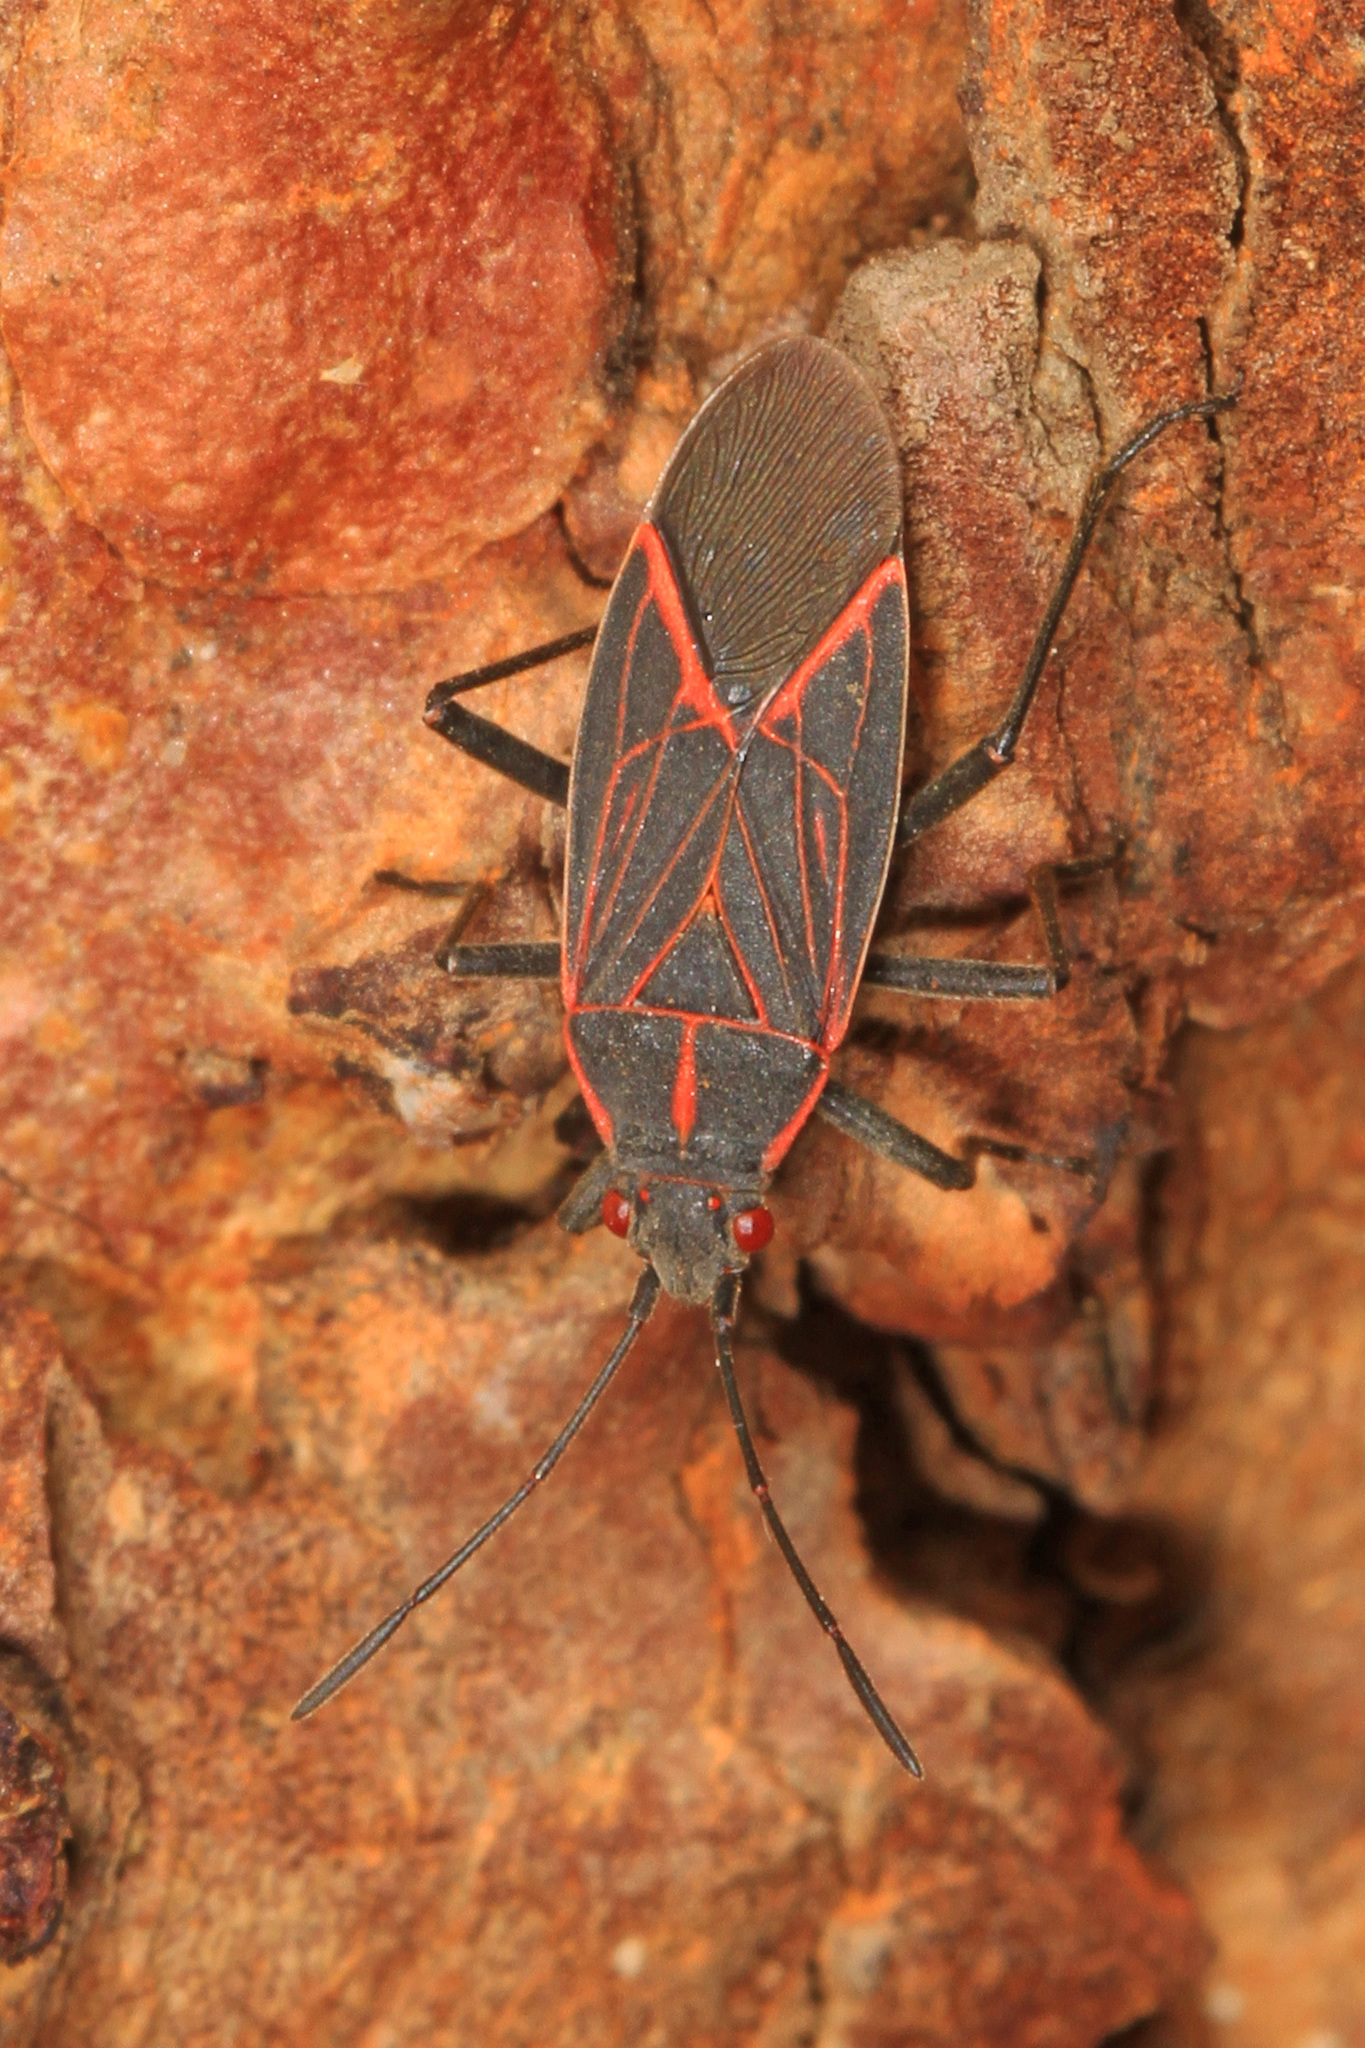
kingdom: Animalia
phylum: Arthropoda
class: Insecta
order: Hemiptera
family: Rhopalidae
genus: Boisea
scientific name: Boisea rubrolineata
